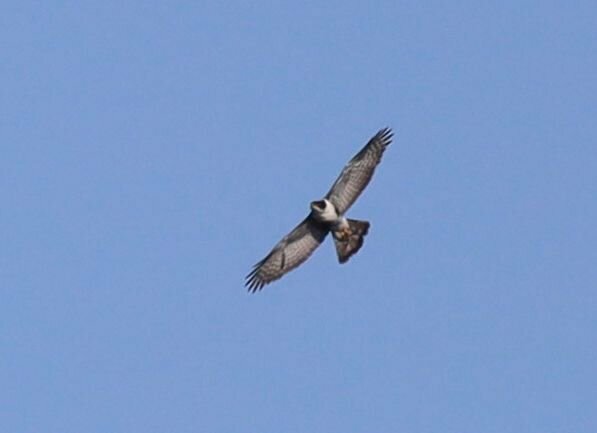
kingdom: Animalia
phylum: Chordata
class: Aves
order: Accipitriformes
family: Accipitridae
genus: Accipiter
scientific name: Accipiter melanoleucus
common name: Black sparrowhawk
